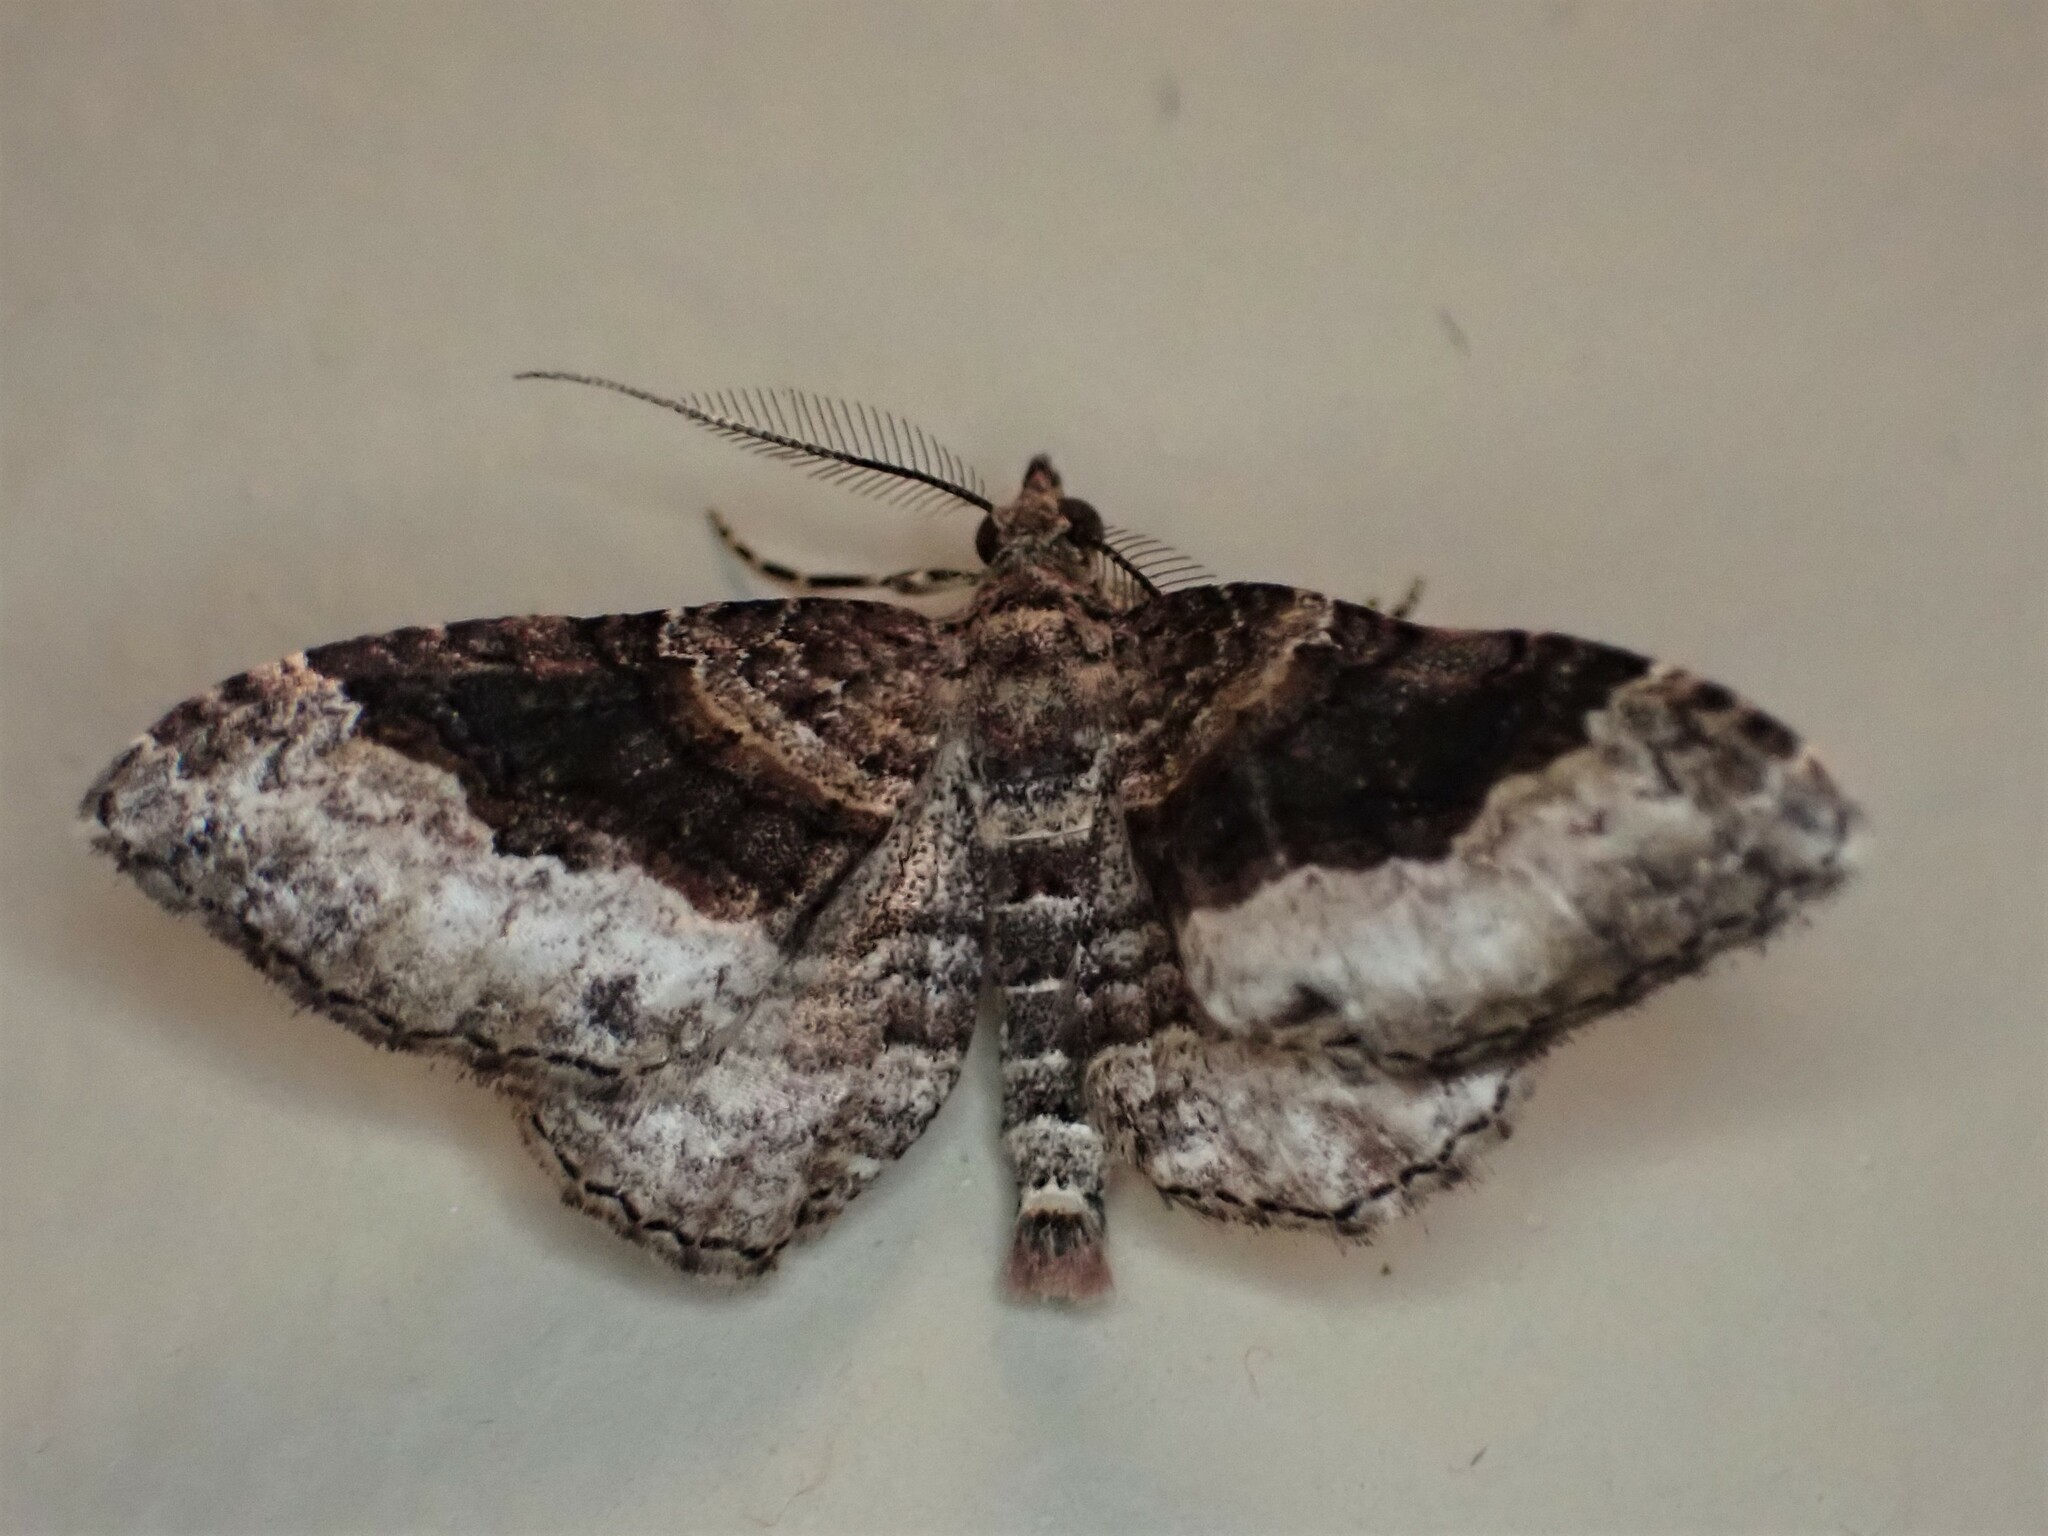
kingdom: Animalia
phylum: Arthropoda
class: Insecta
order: Lepidoptera
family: Geometridae
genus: Epyaxa
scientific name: Epyaxa lucidata
